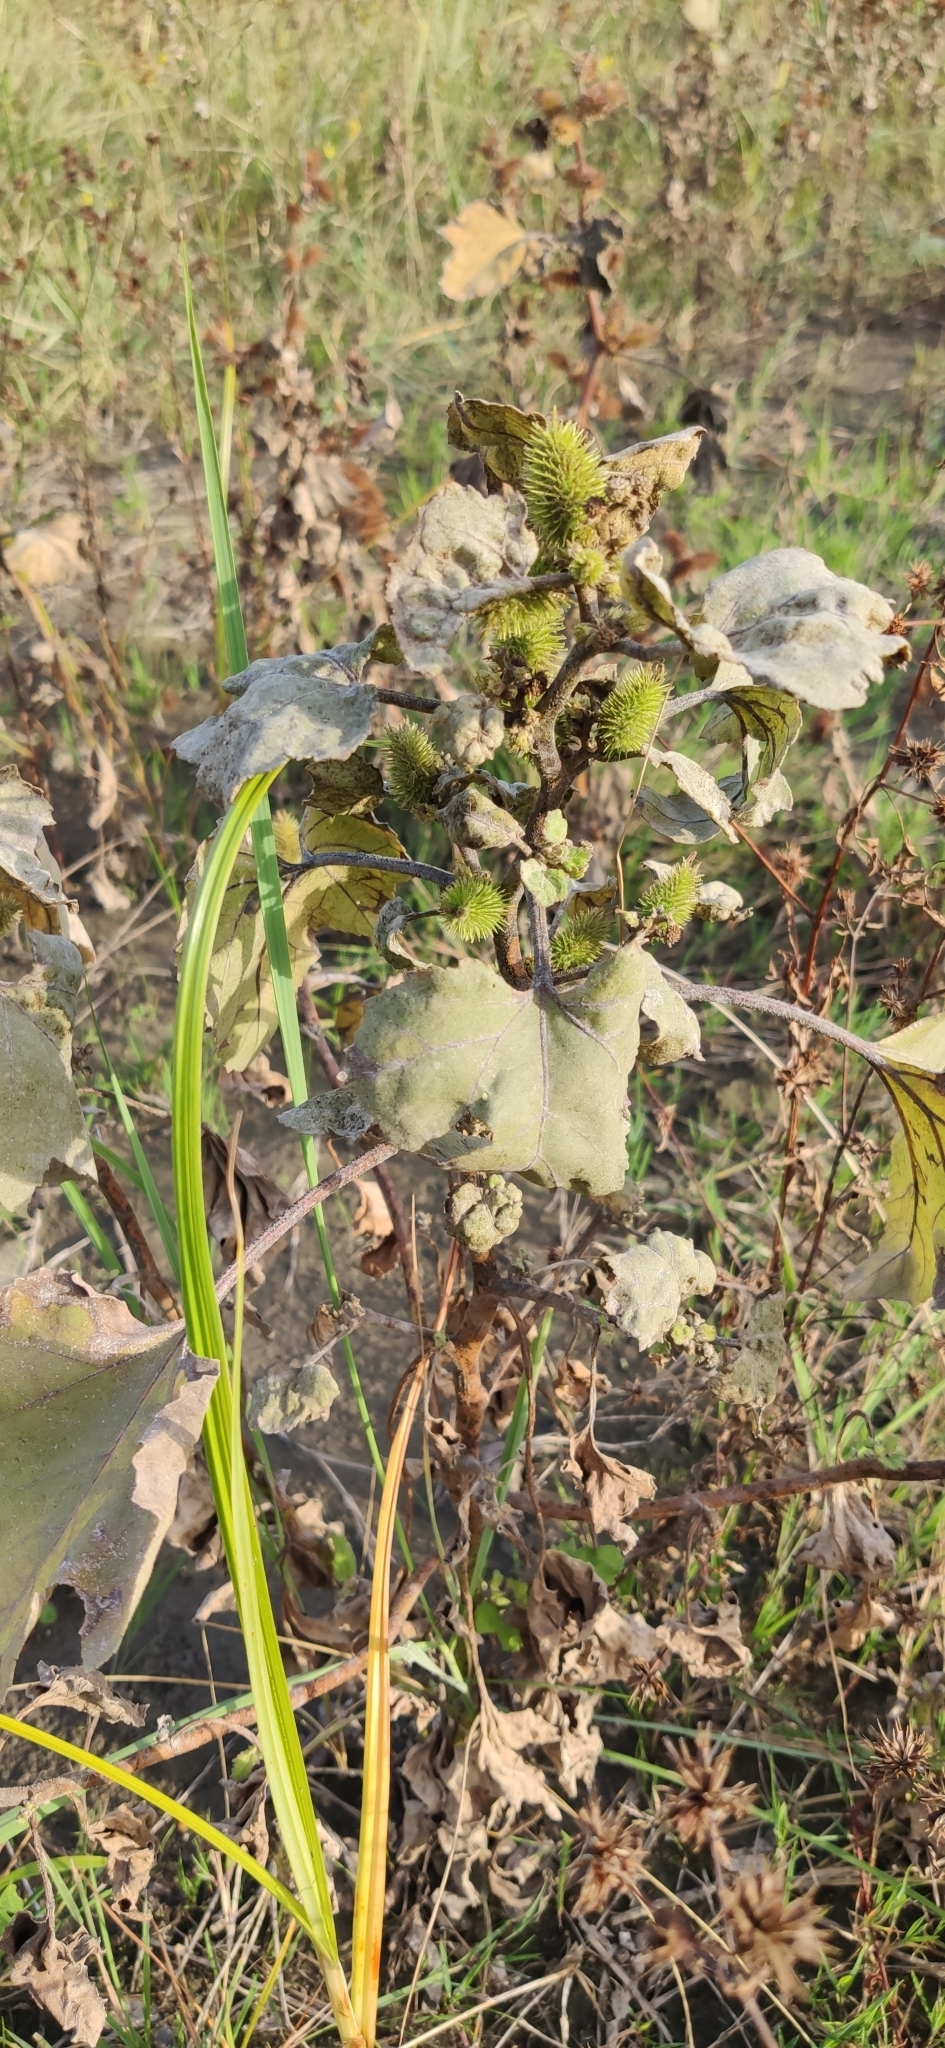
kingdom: Plantae
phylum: Tracheophyta
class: Magnoliopsida
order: Asterales
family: Asteraceae
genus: Xanthium
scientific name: Xanthium orientale
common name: Californian burr
